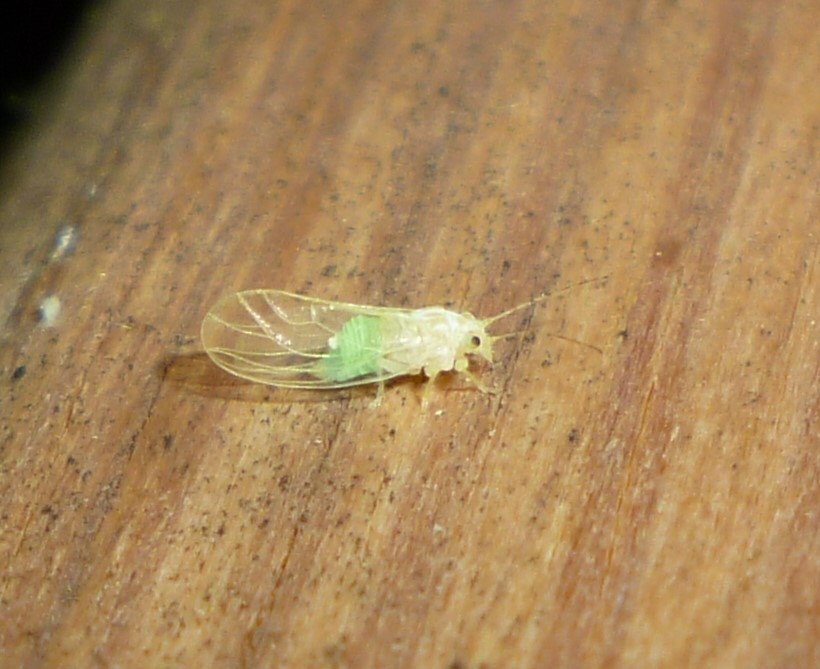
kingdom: Animalia
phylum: Arthropoda
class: Insecta
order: Hemiptera
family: Psyllidae
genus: Cacopsylla
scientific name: Cacopsylla annulata
